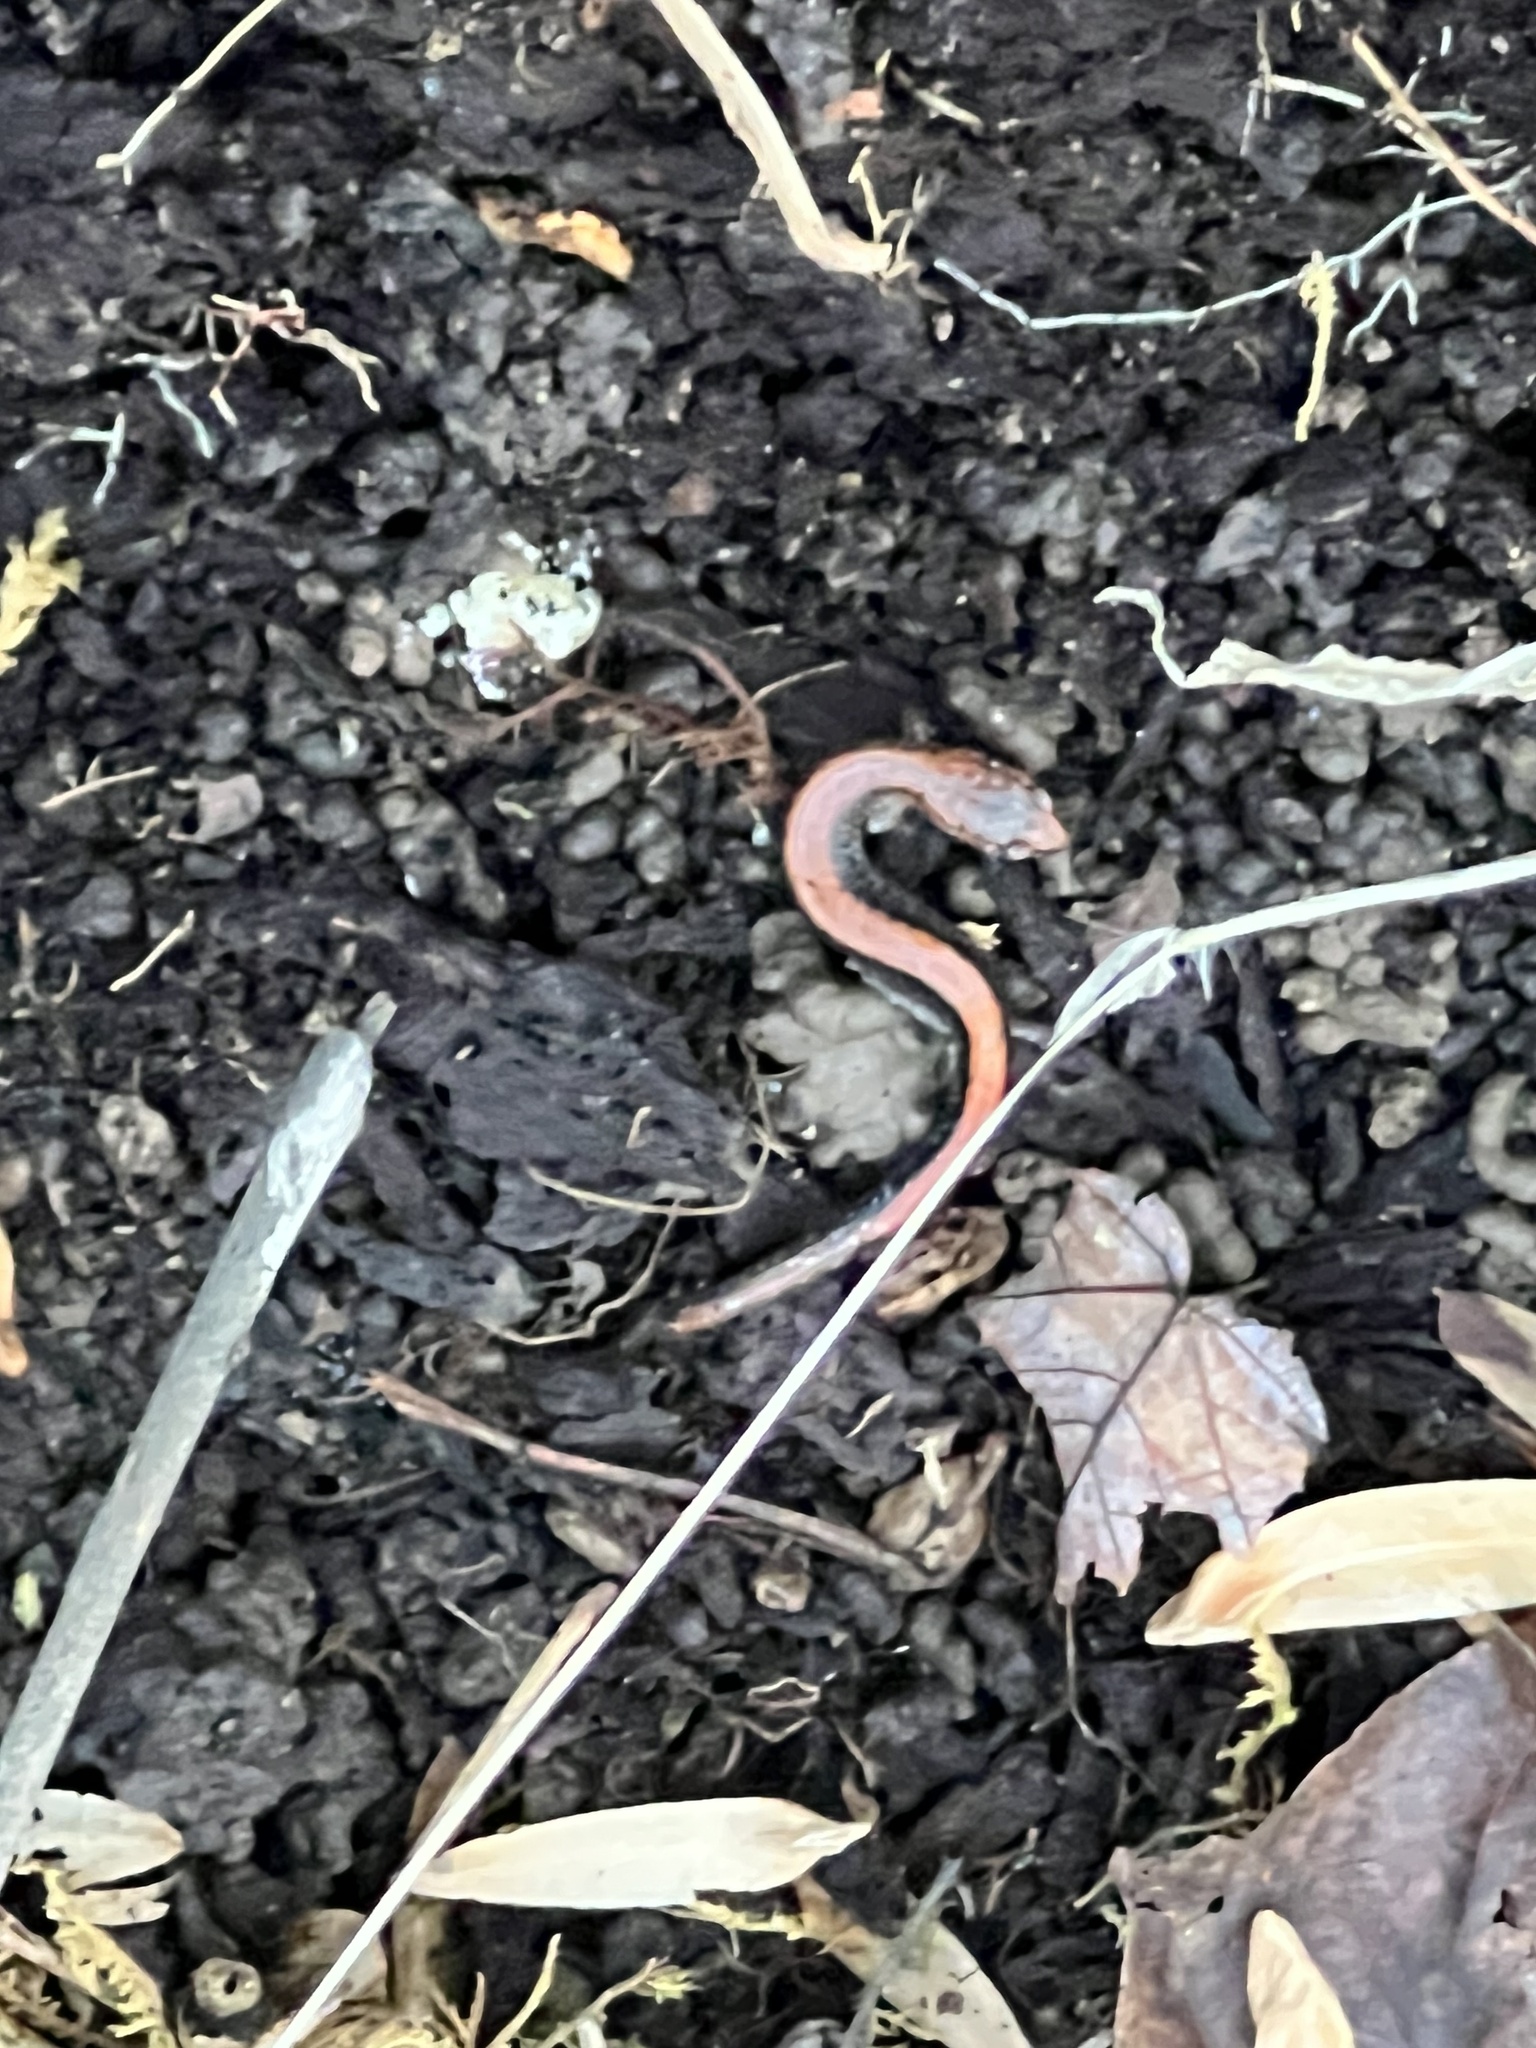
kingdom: Animalia
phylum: Chordata
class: Amphibia
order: Caudata
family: Plethodontidae
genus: Plethodon
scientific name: Plethodon cinereus
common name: Redback salamander
